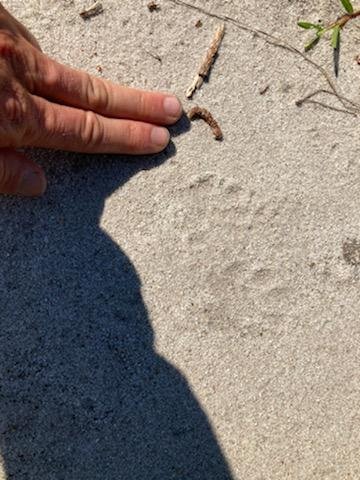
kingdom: Animalia
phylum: Chordata
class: Mammalia
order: Carnivora
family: Procyonidae
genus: Procyon
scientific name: Procyon lotor
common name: Raccoon
